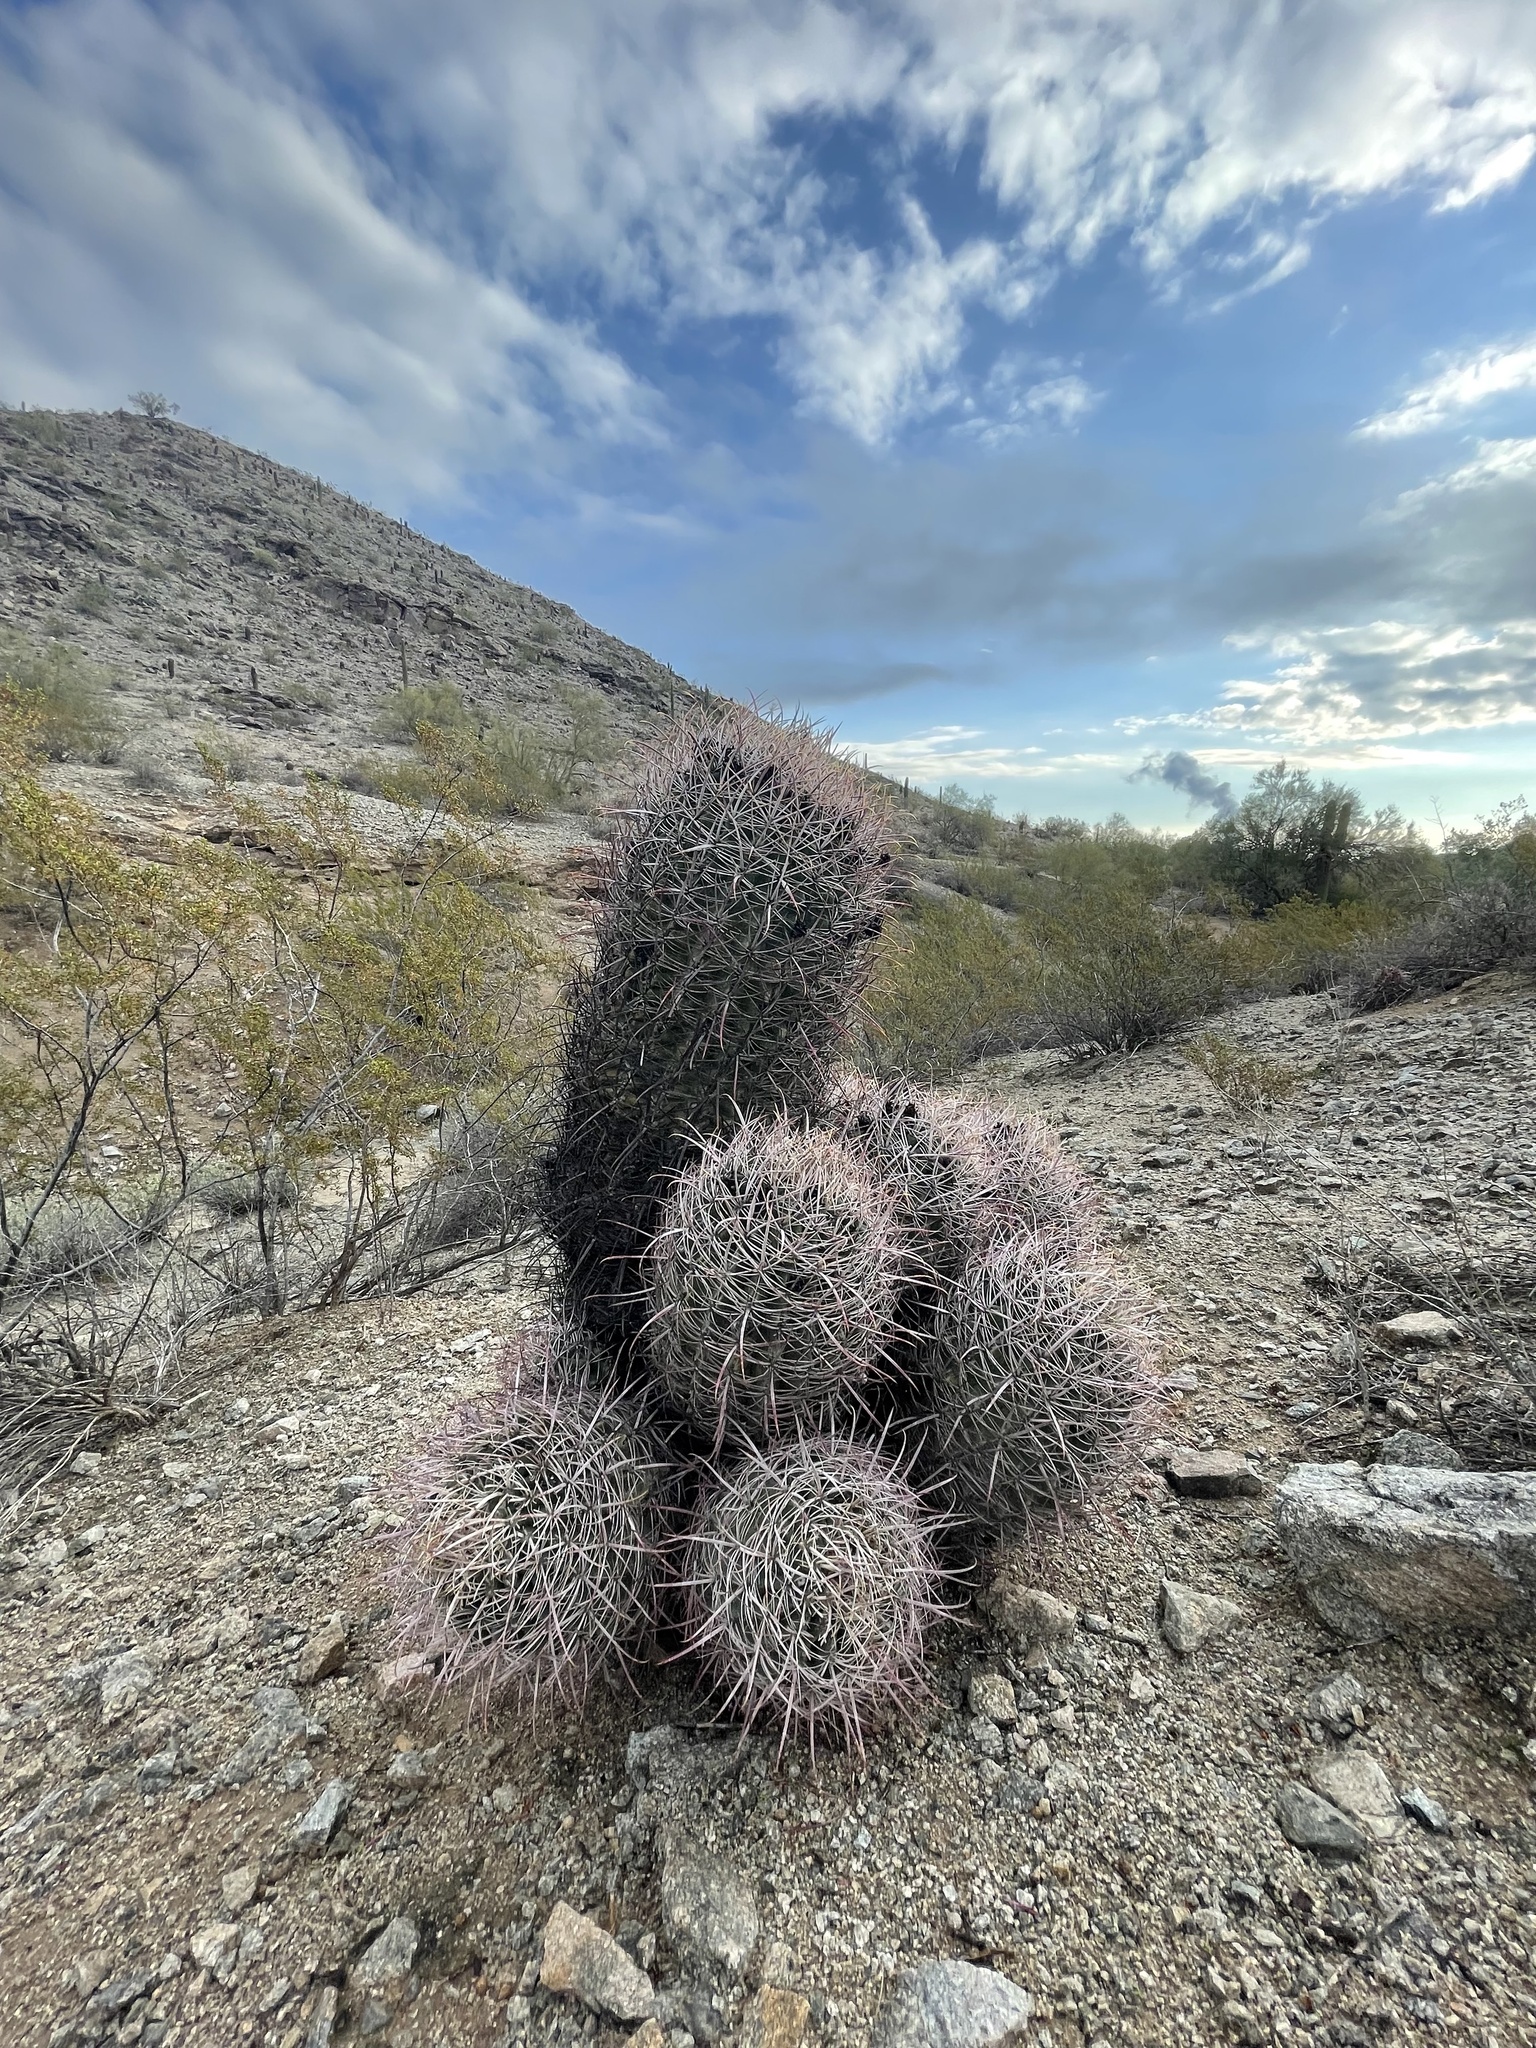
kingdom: Plantae
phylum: Tracheophyta
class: Magnoliopsida
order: Caryophyllales
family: Cactaceae
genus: Ferocactus
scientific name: Ferocactus cylindraceus
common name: California barrel cactus
